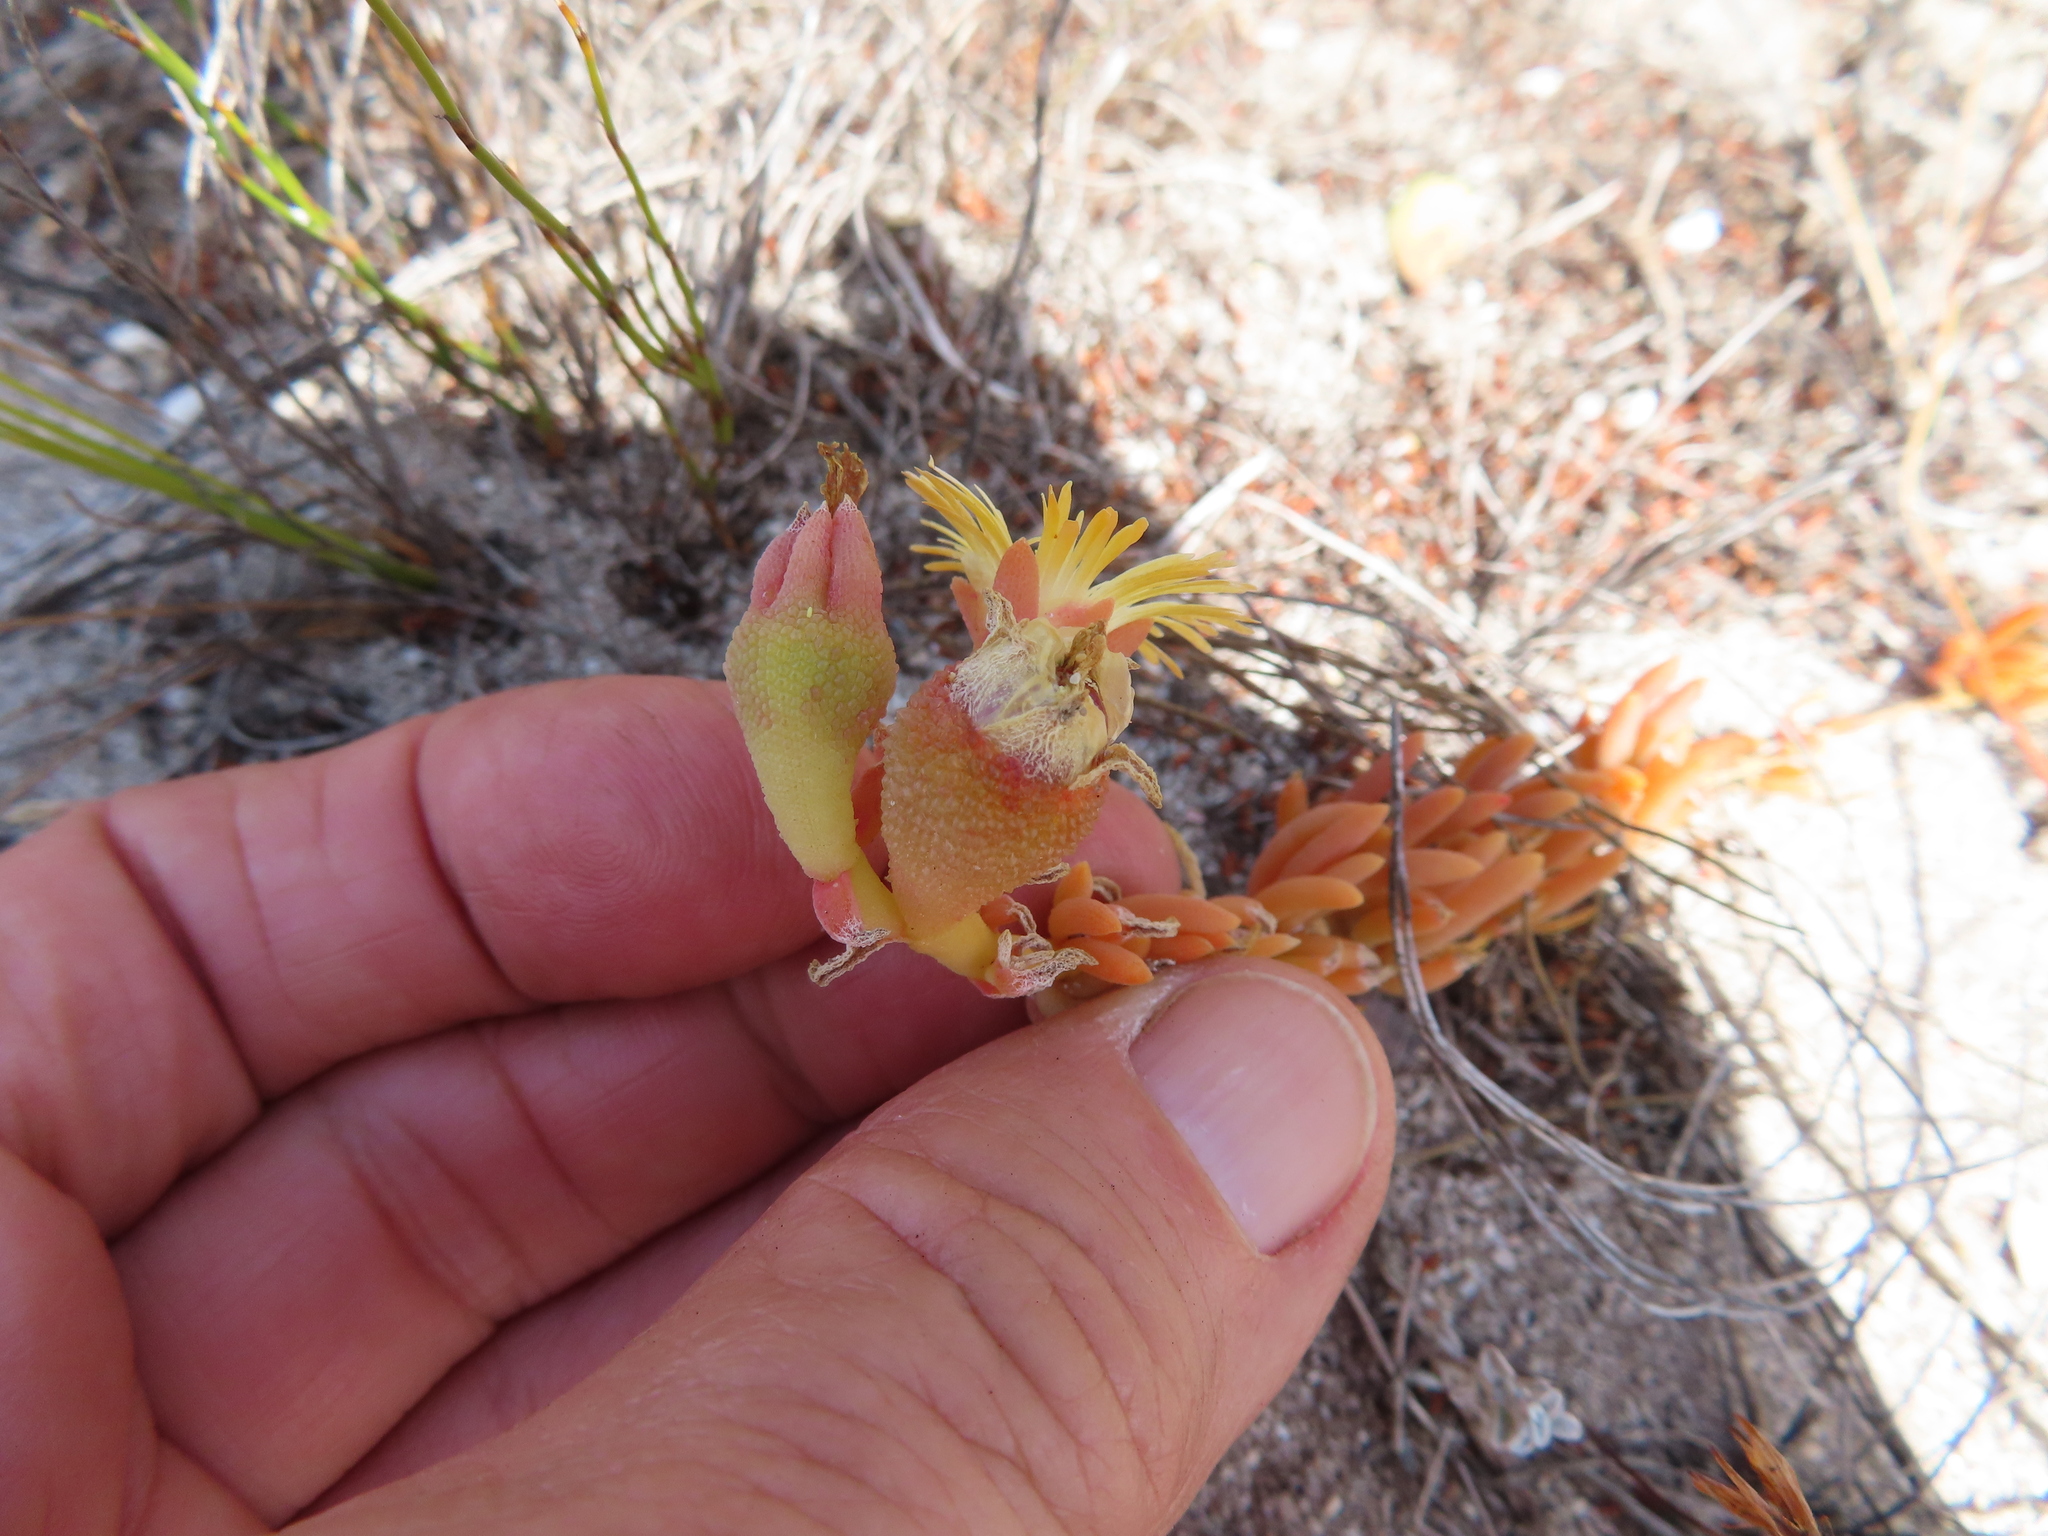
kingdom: Plantae
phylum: Tracheophyta
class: Magnoliopsida
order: Caryophyllales
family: Aizoaceae
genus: Mesembryanthemum
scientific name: Mesembryanthemum canaliculatum
